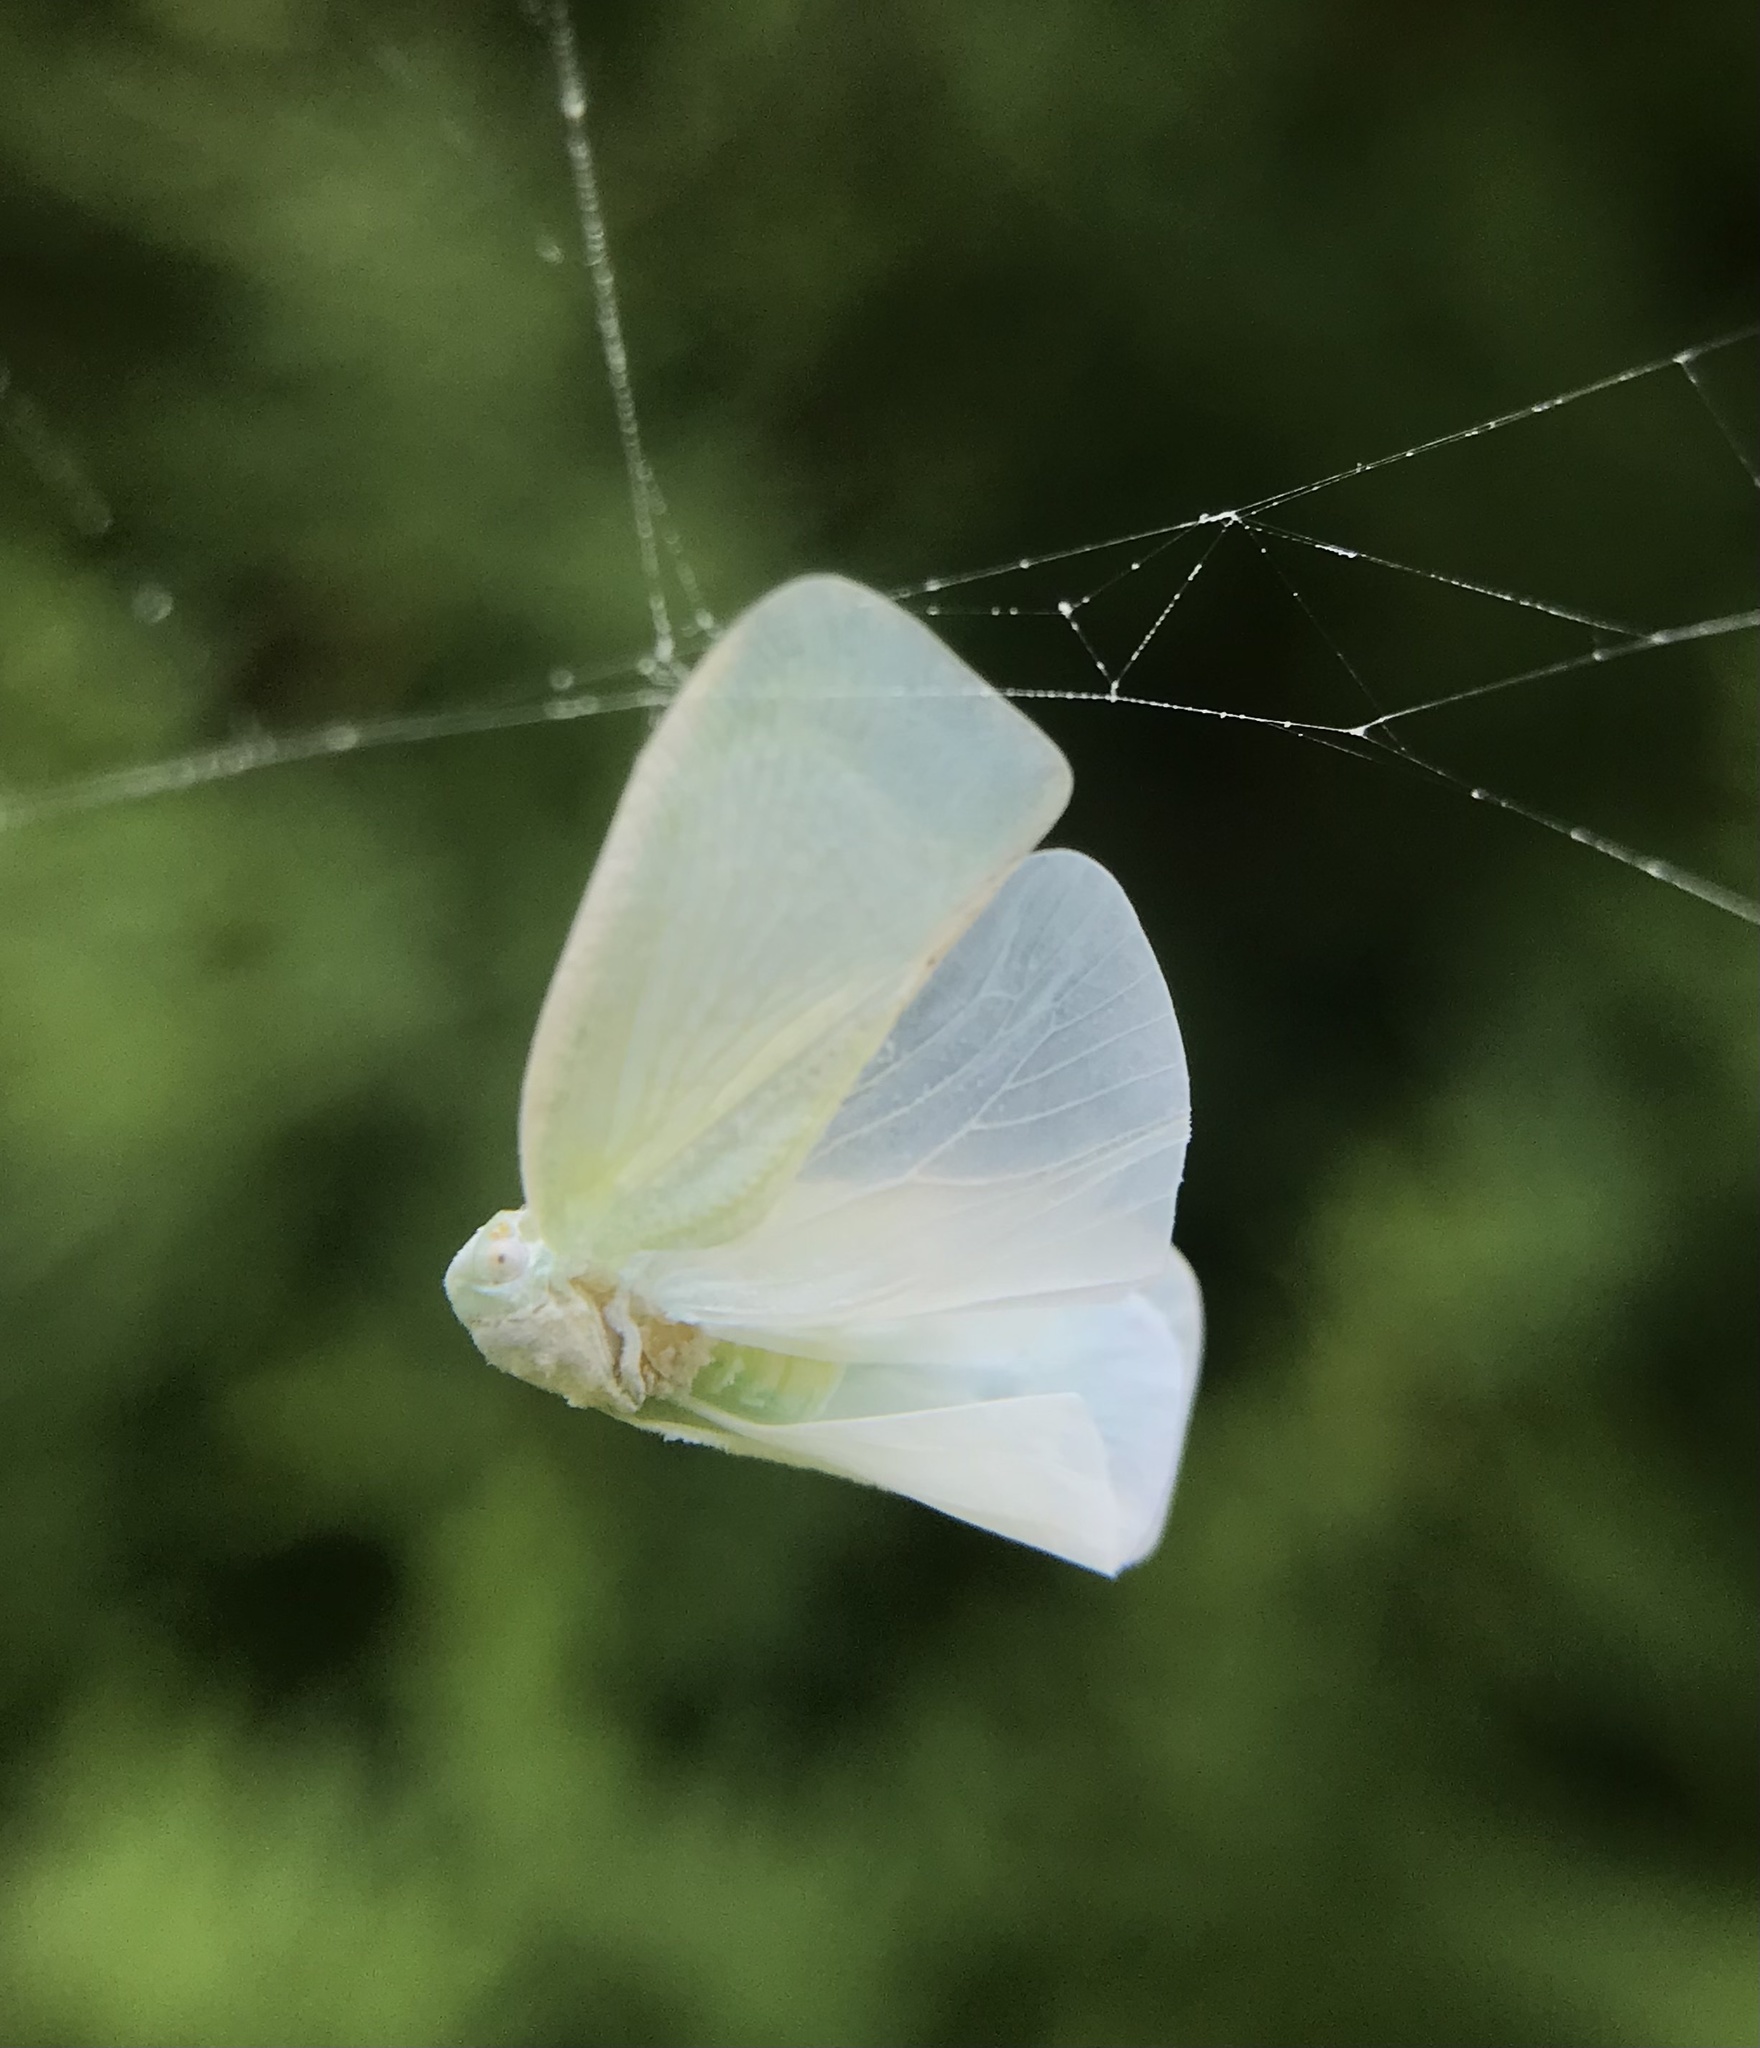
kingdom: Animalia
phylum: Arthropoda
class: Insecta
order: Hemiptera
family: Flatidae
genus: Flatormenis
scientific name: Flatormenis proxima
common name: Northern flatid planthopper
